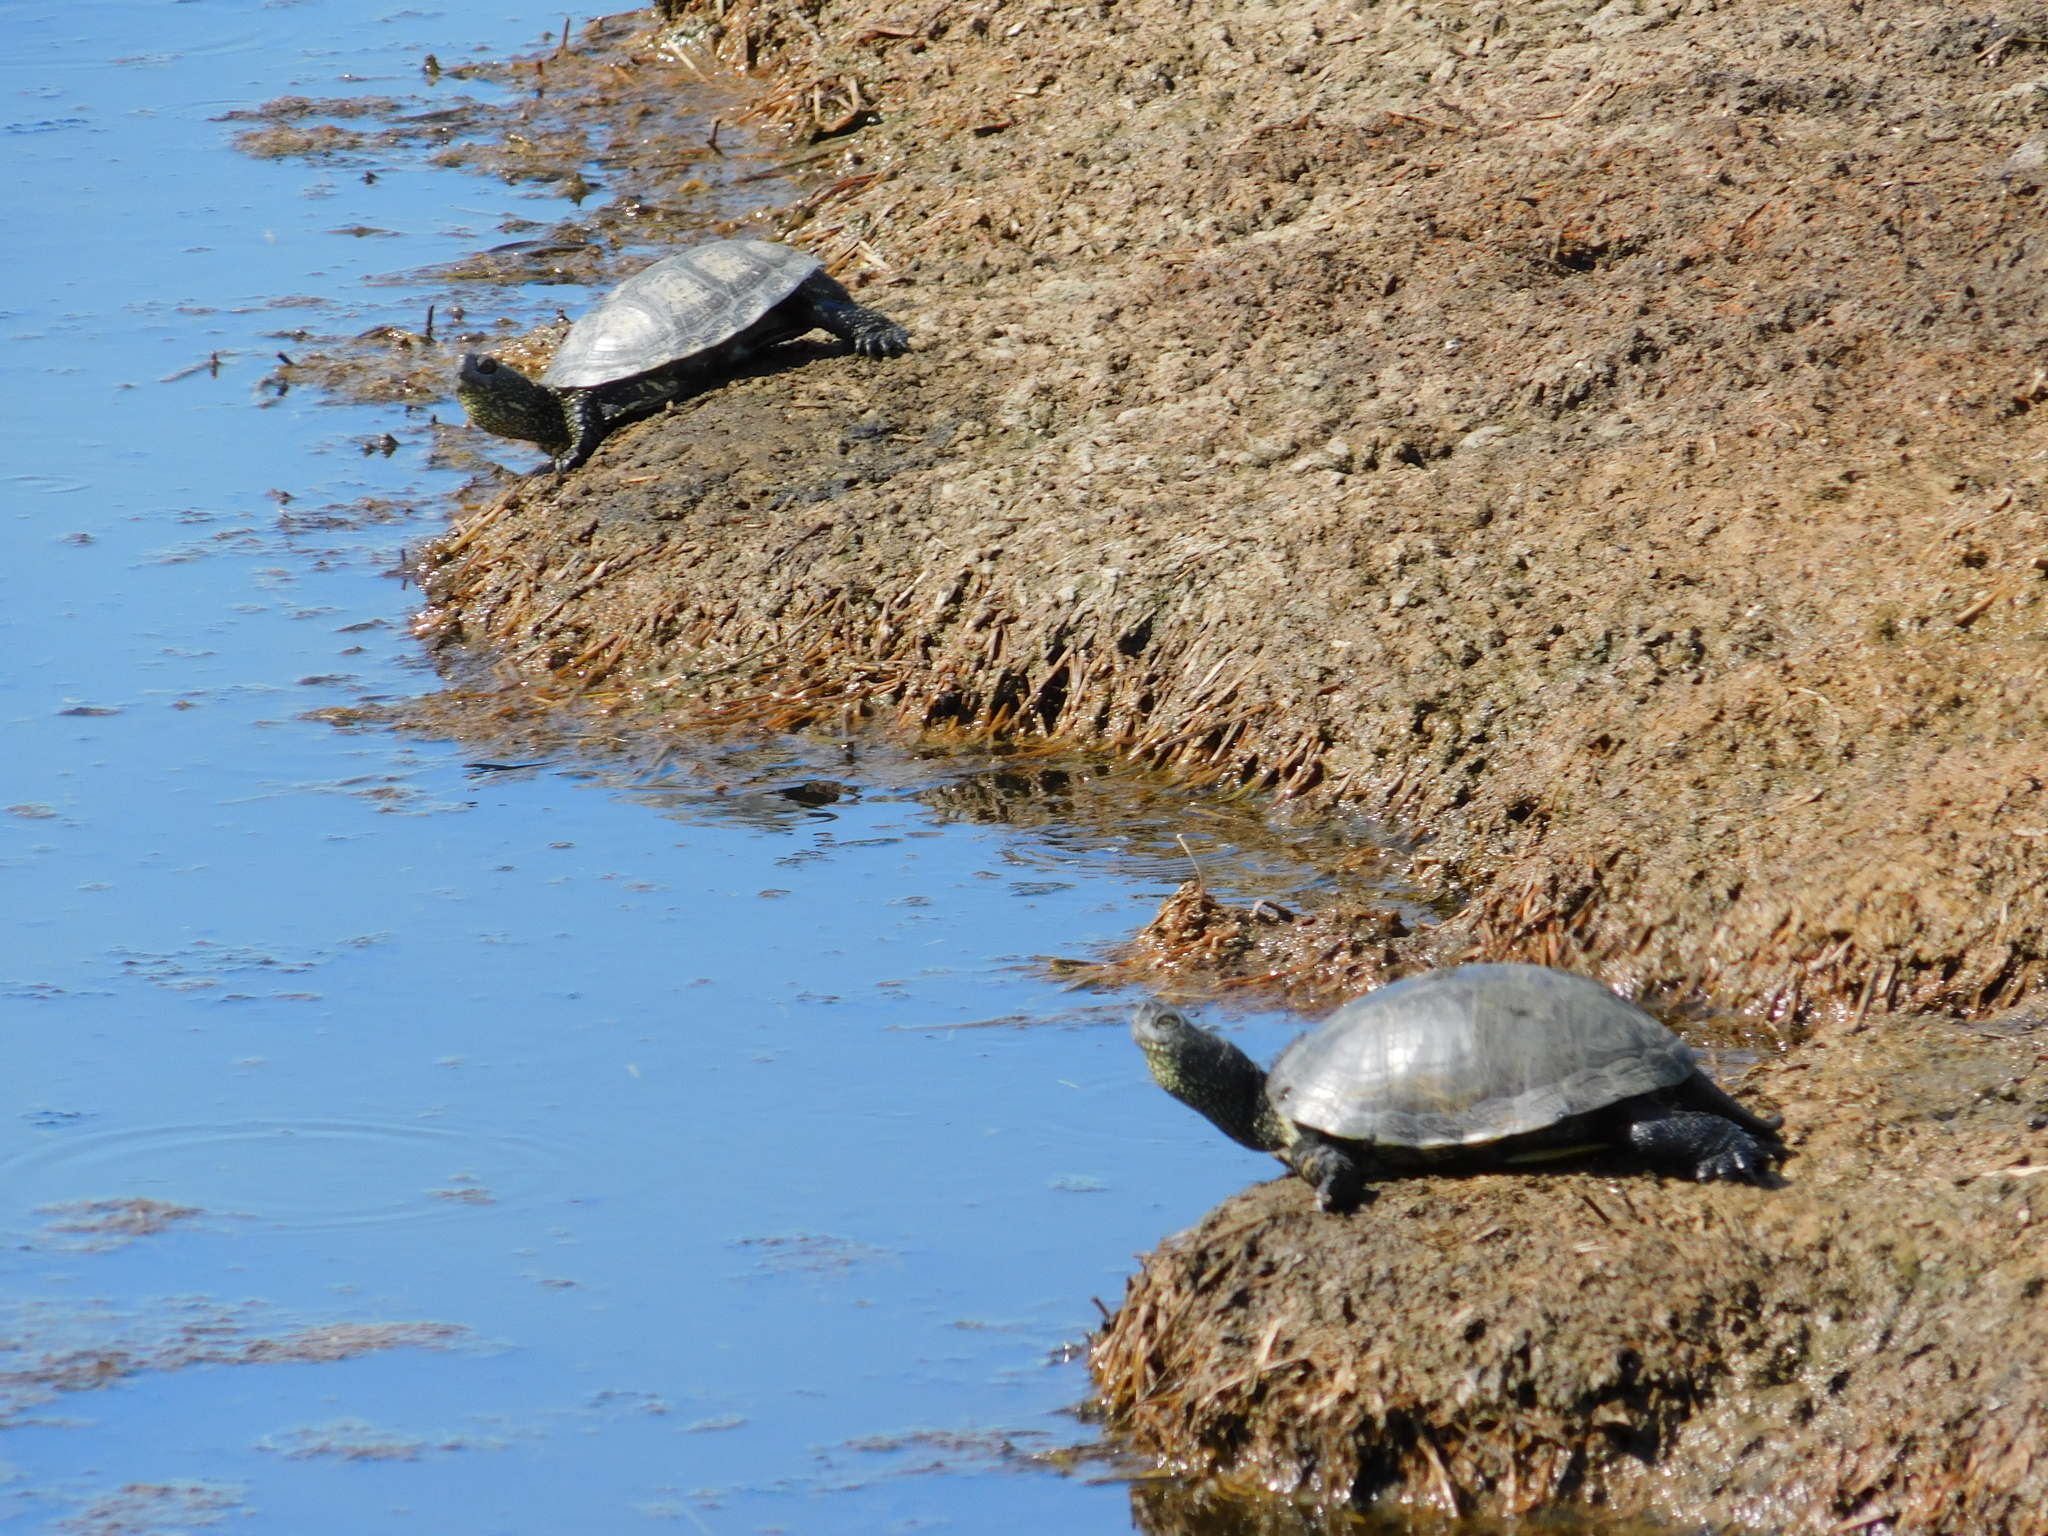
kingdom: Animalia
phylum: Chordata
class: Testudines
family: Emydidae
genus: Emys
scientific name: Emys orbicularis
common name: European pond turtle
